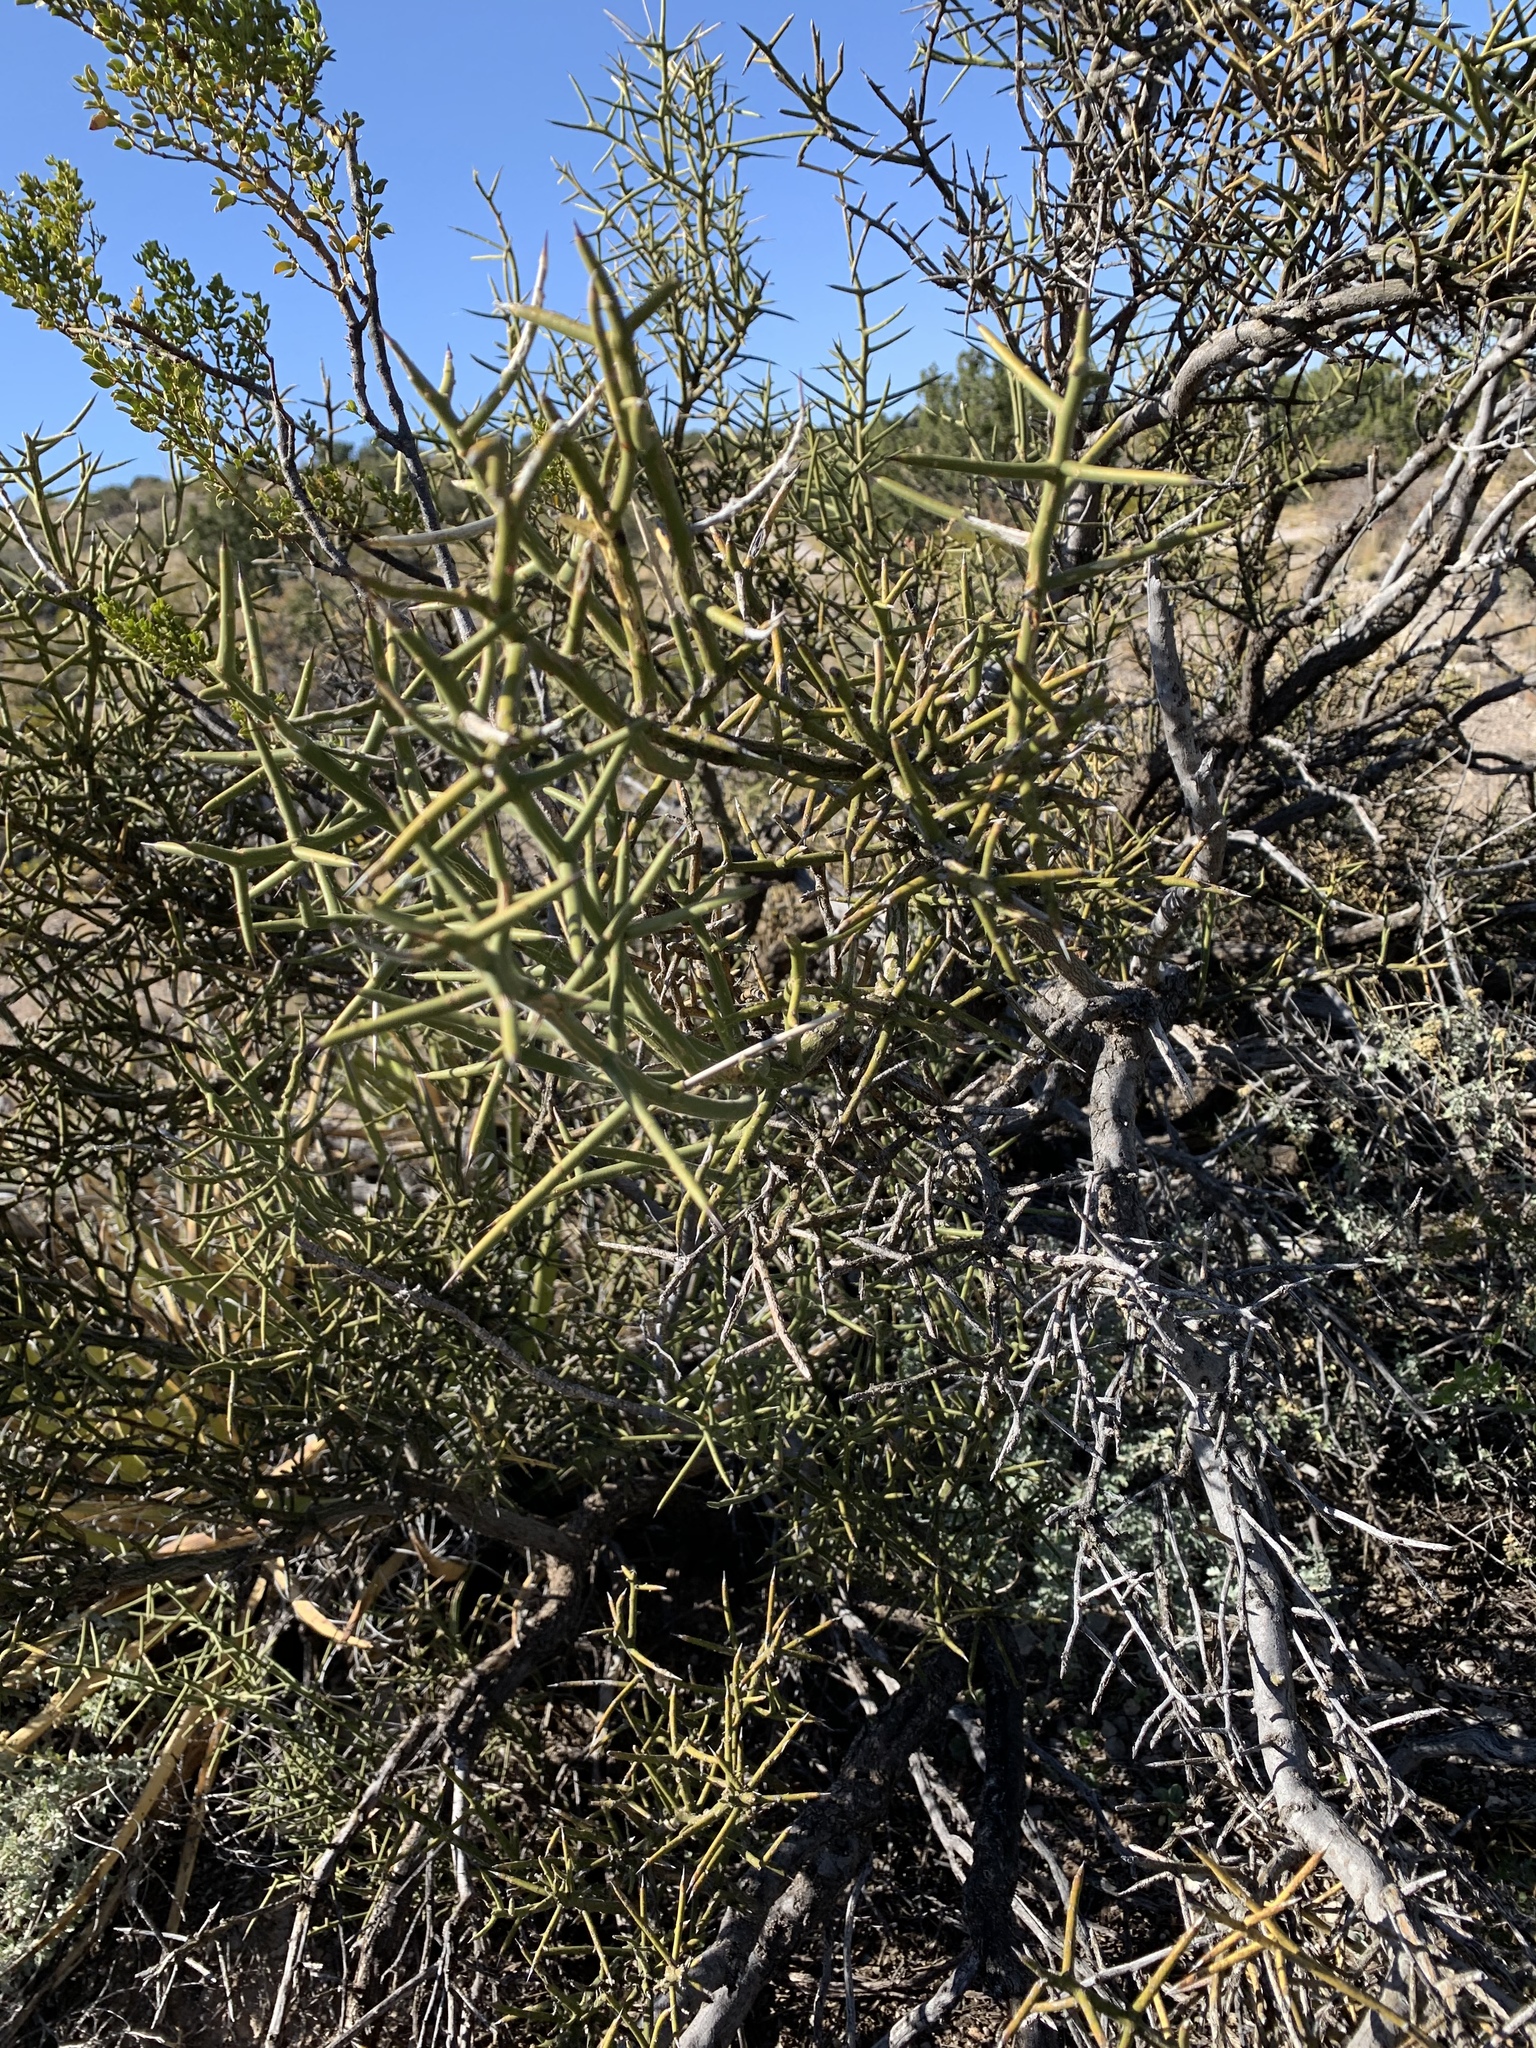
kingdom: Plantae
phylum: Tracheophyta
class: Magnoliopsida
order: Brassicales
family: Koeberliniaceae
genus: Koeberlinia
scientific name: Koeberlinia spinosa
